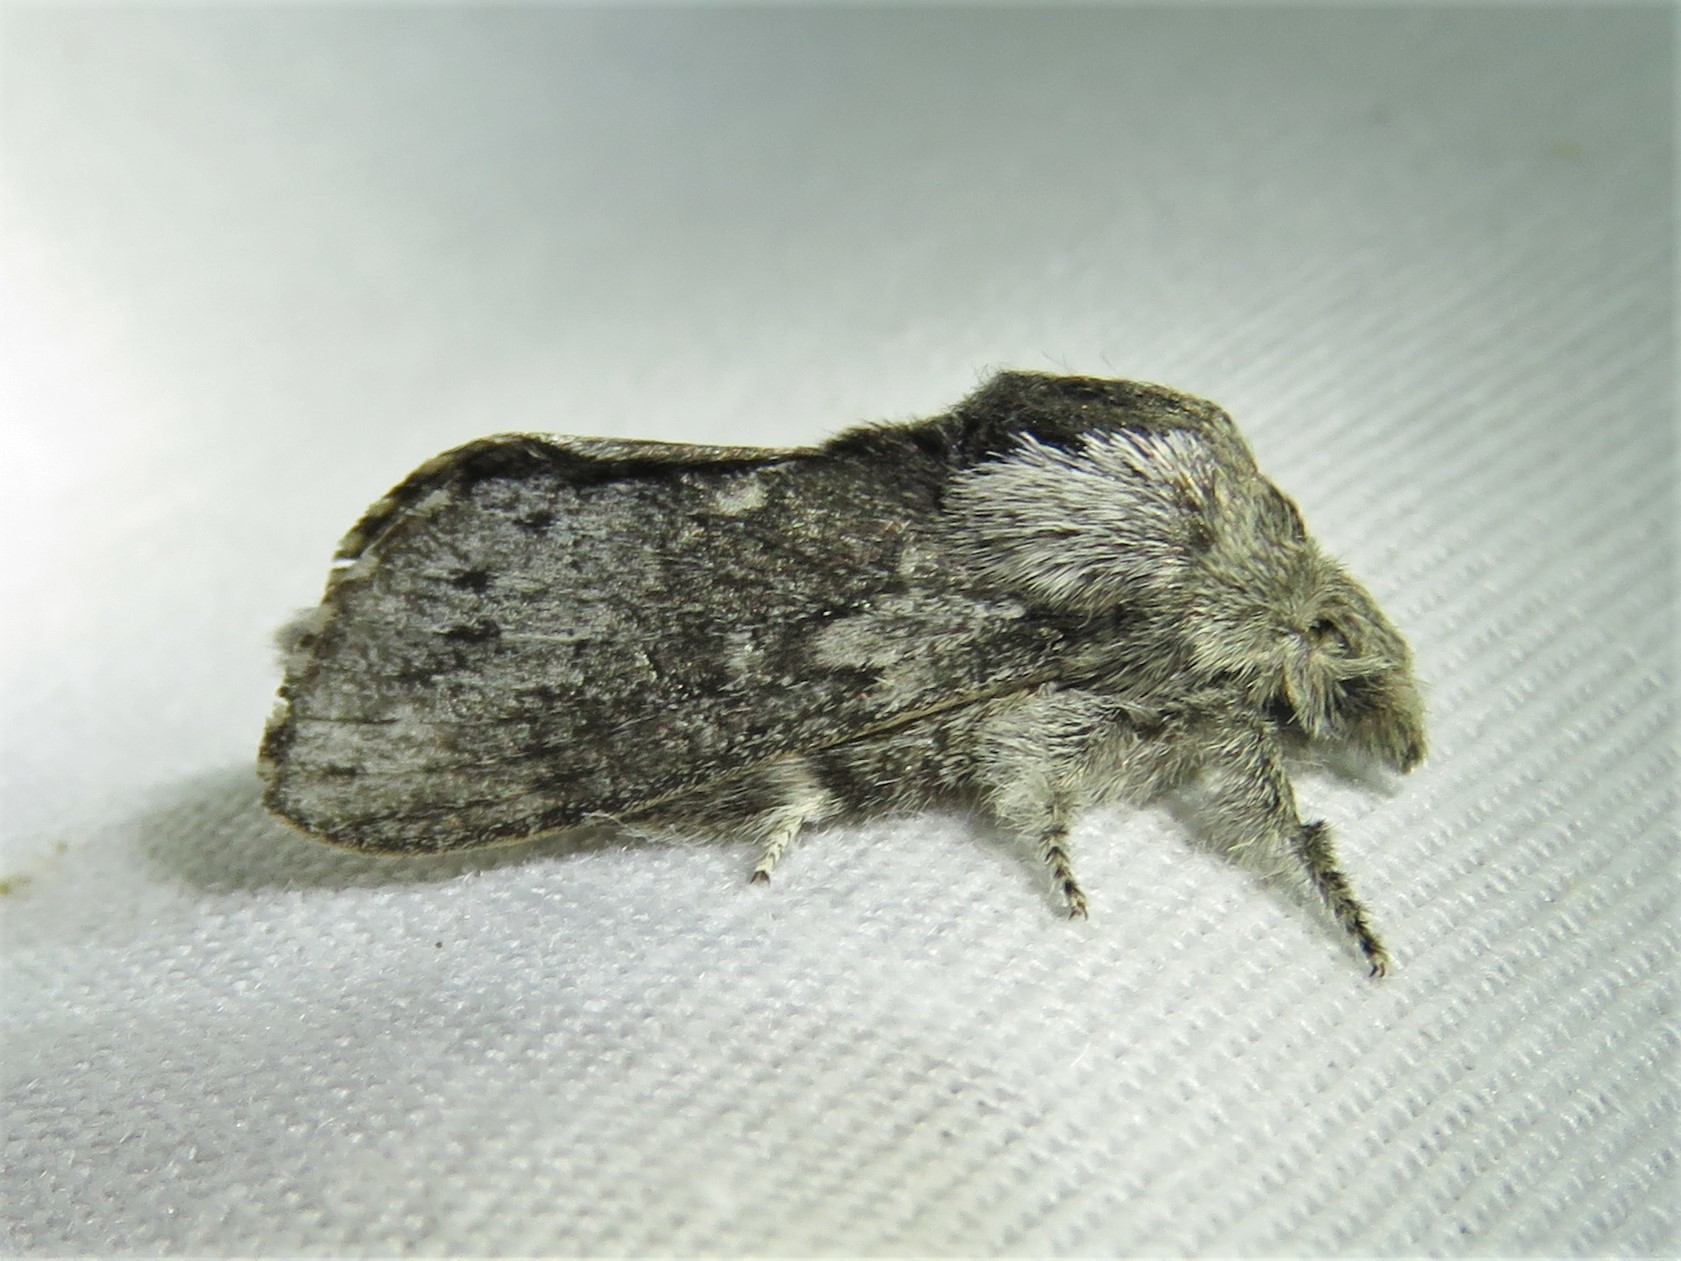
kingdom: Animalia
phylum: Arthropoda
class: Insecta
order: Lepidoptera
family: Lasiocampidae
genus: Heteropacha
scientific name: Heteropacha rileyana
